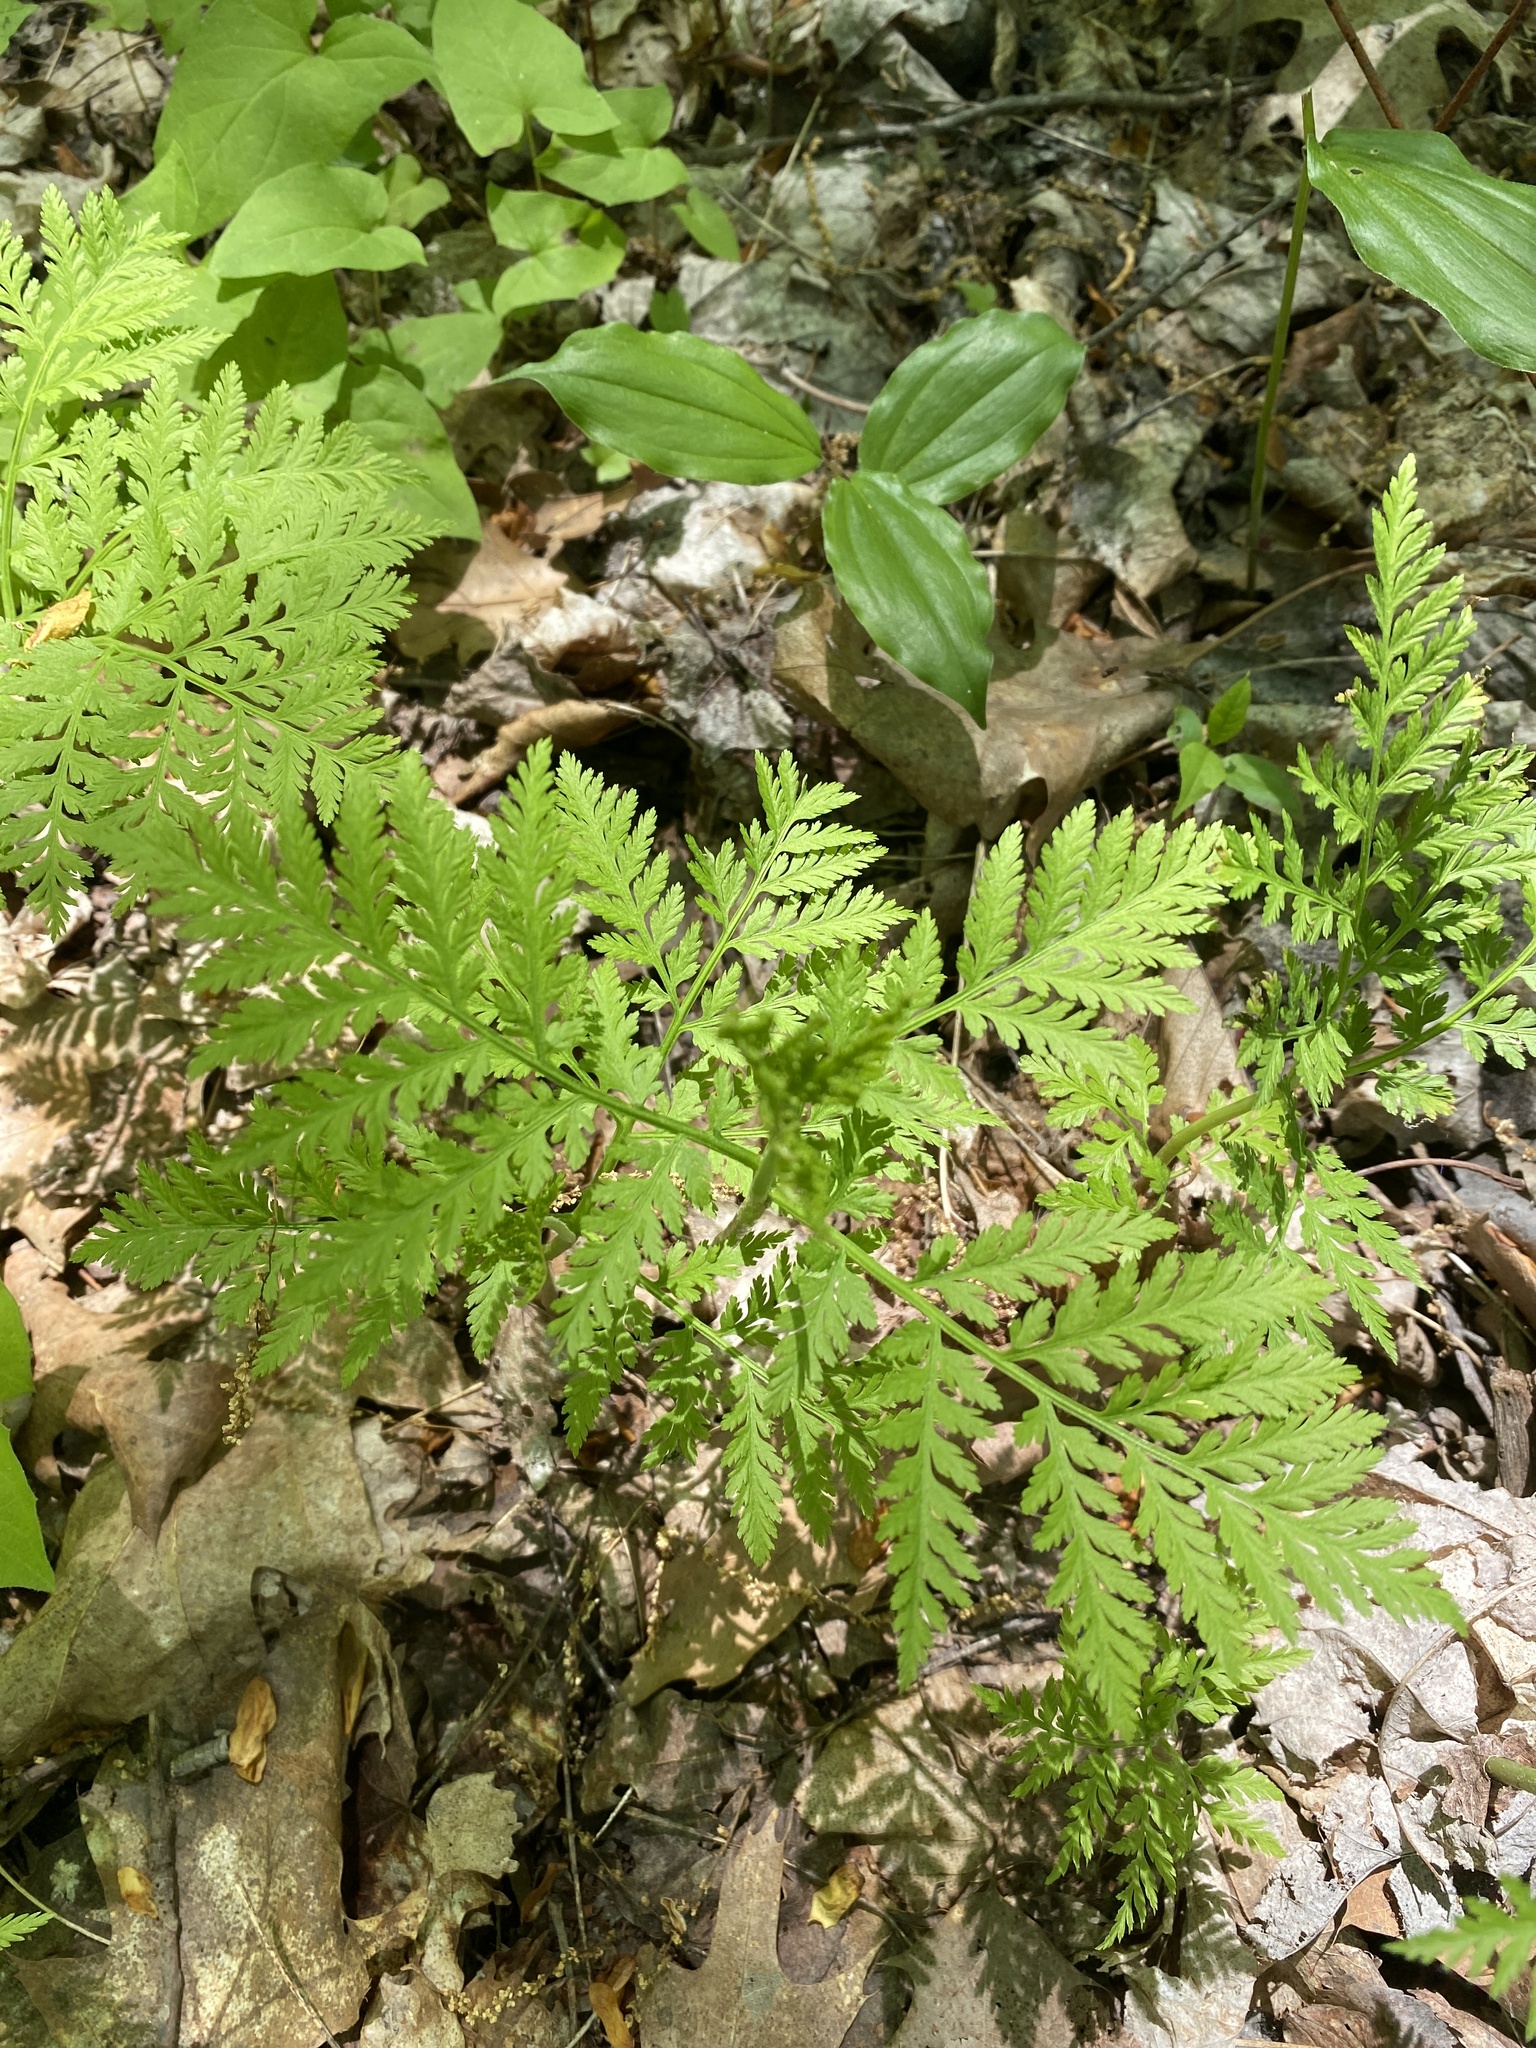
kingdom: Plantae
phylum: Tracheophyta
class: Polypodiopsida
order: Ophioglossales
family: Ophioglossaceae
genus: Botrypus
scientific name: Botrypus virginianus
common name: Common grapefern
